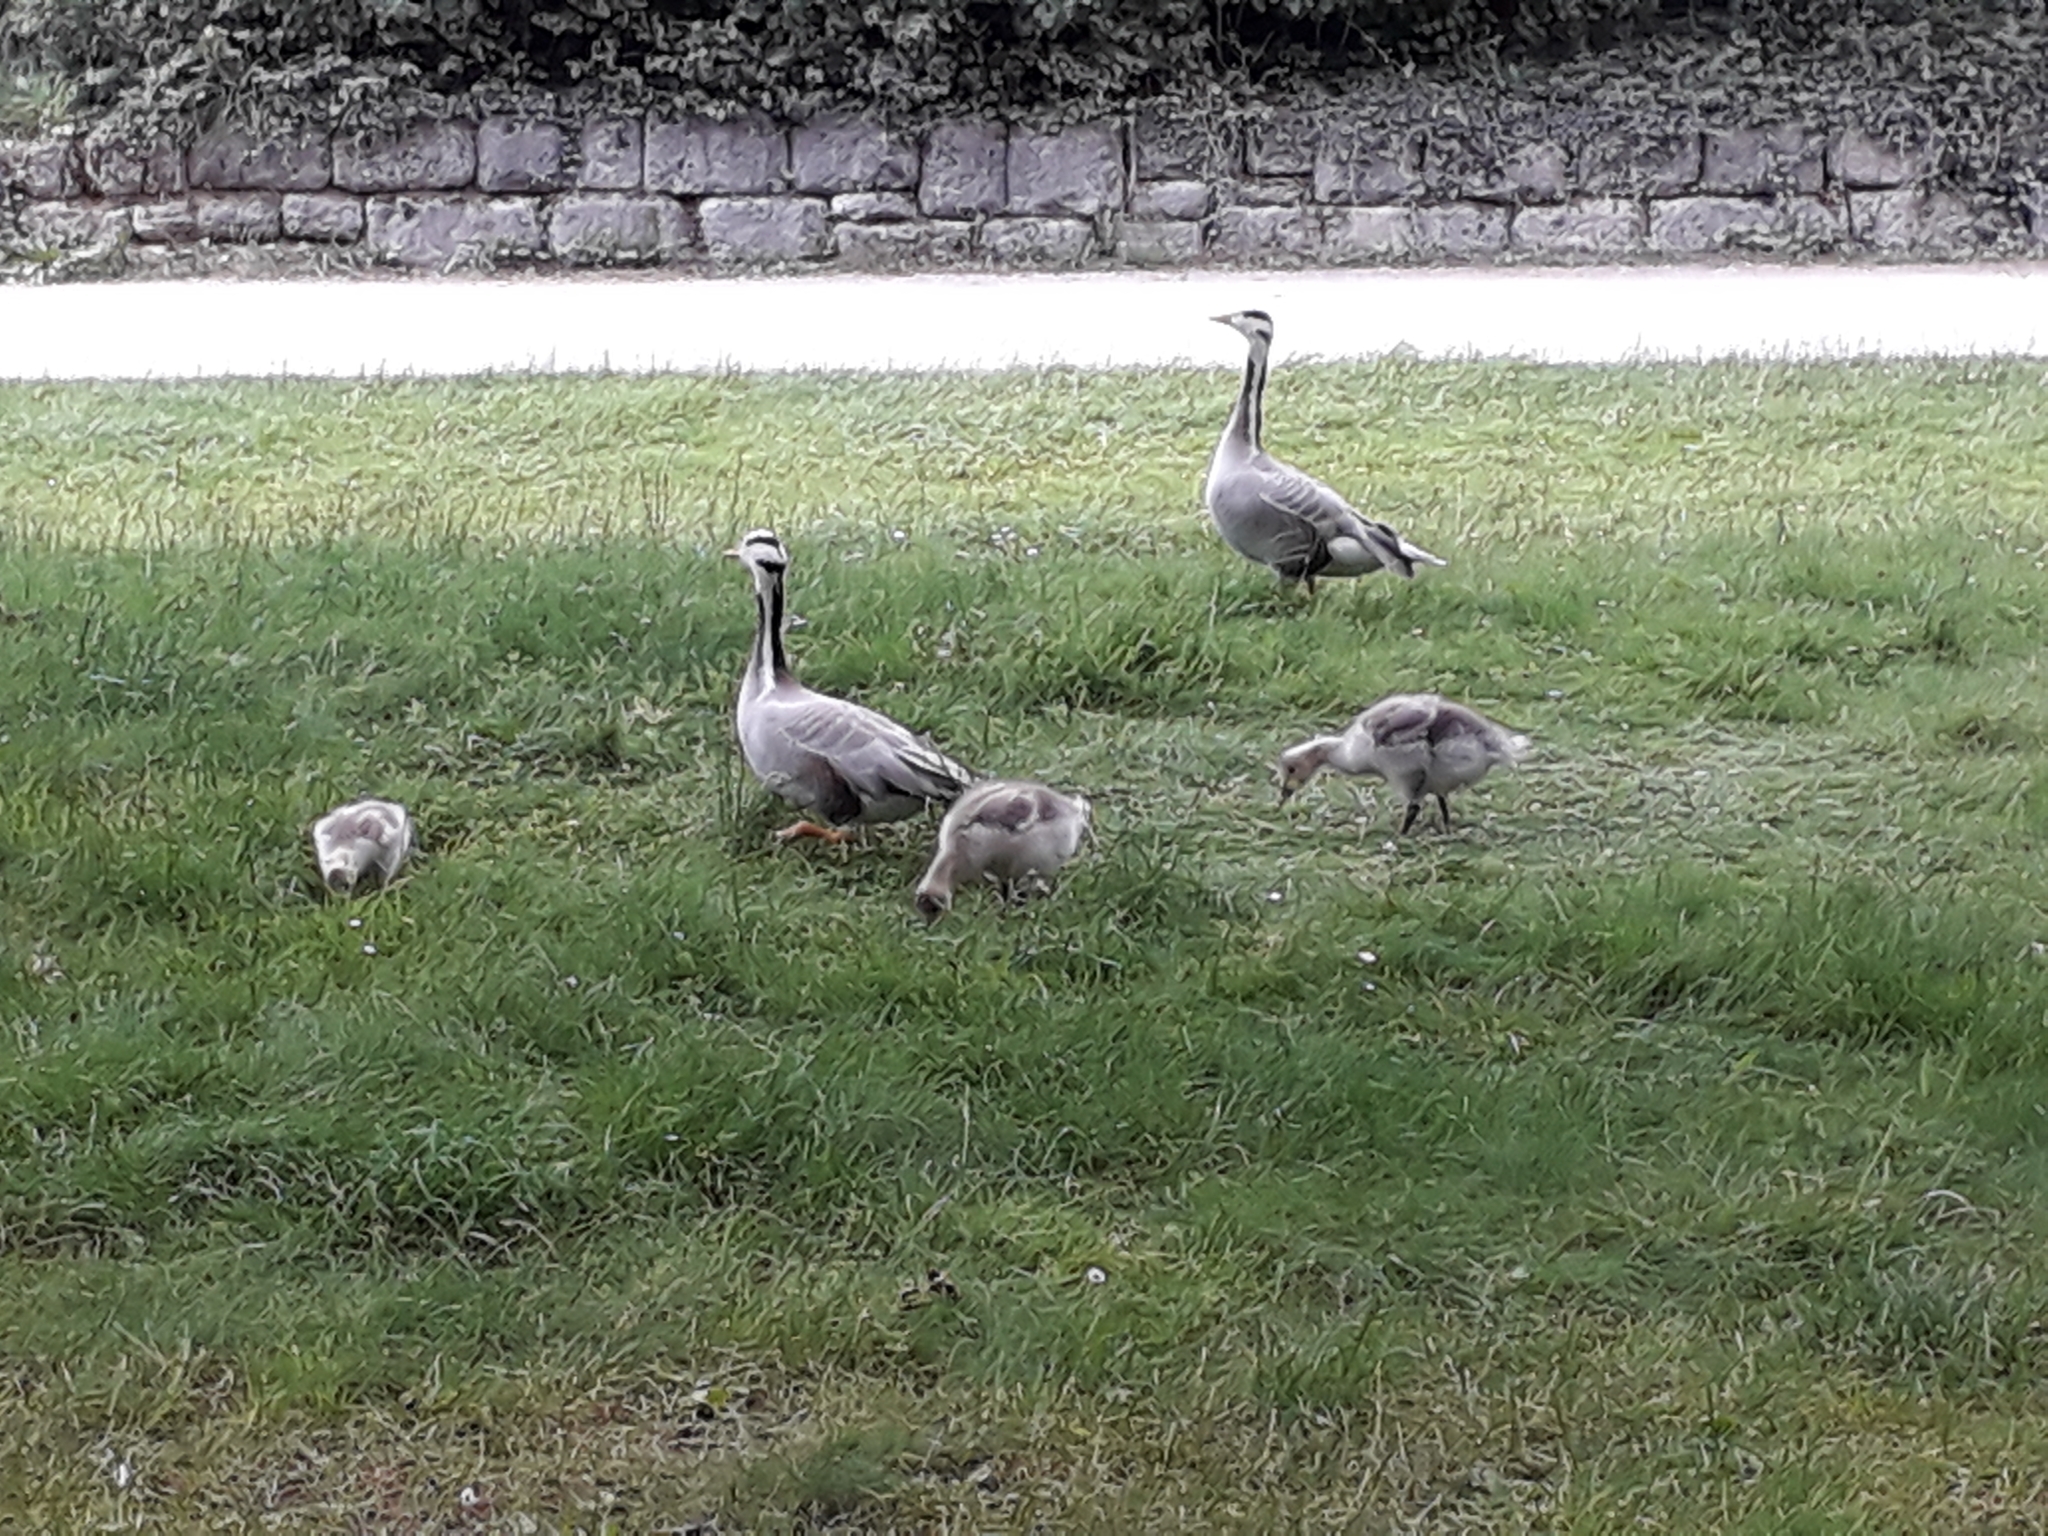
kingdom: Animalia
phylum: Chordata
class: Aves
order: Anseriformes
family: Anatidae
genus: Anser
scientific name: Anser indicus
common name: Bar-headed goose
